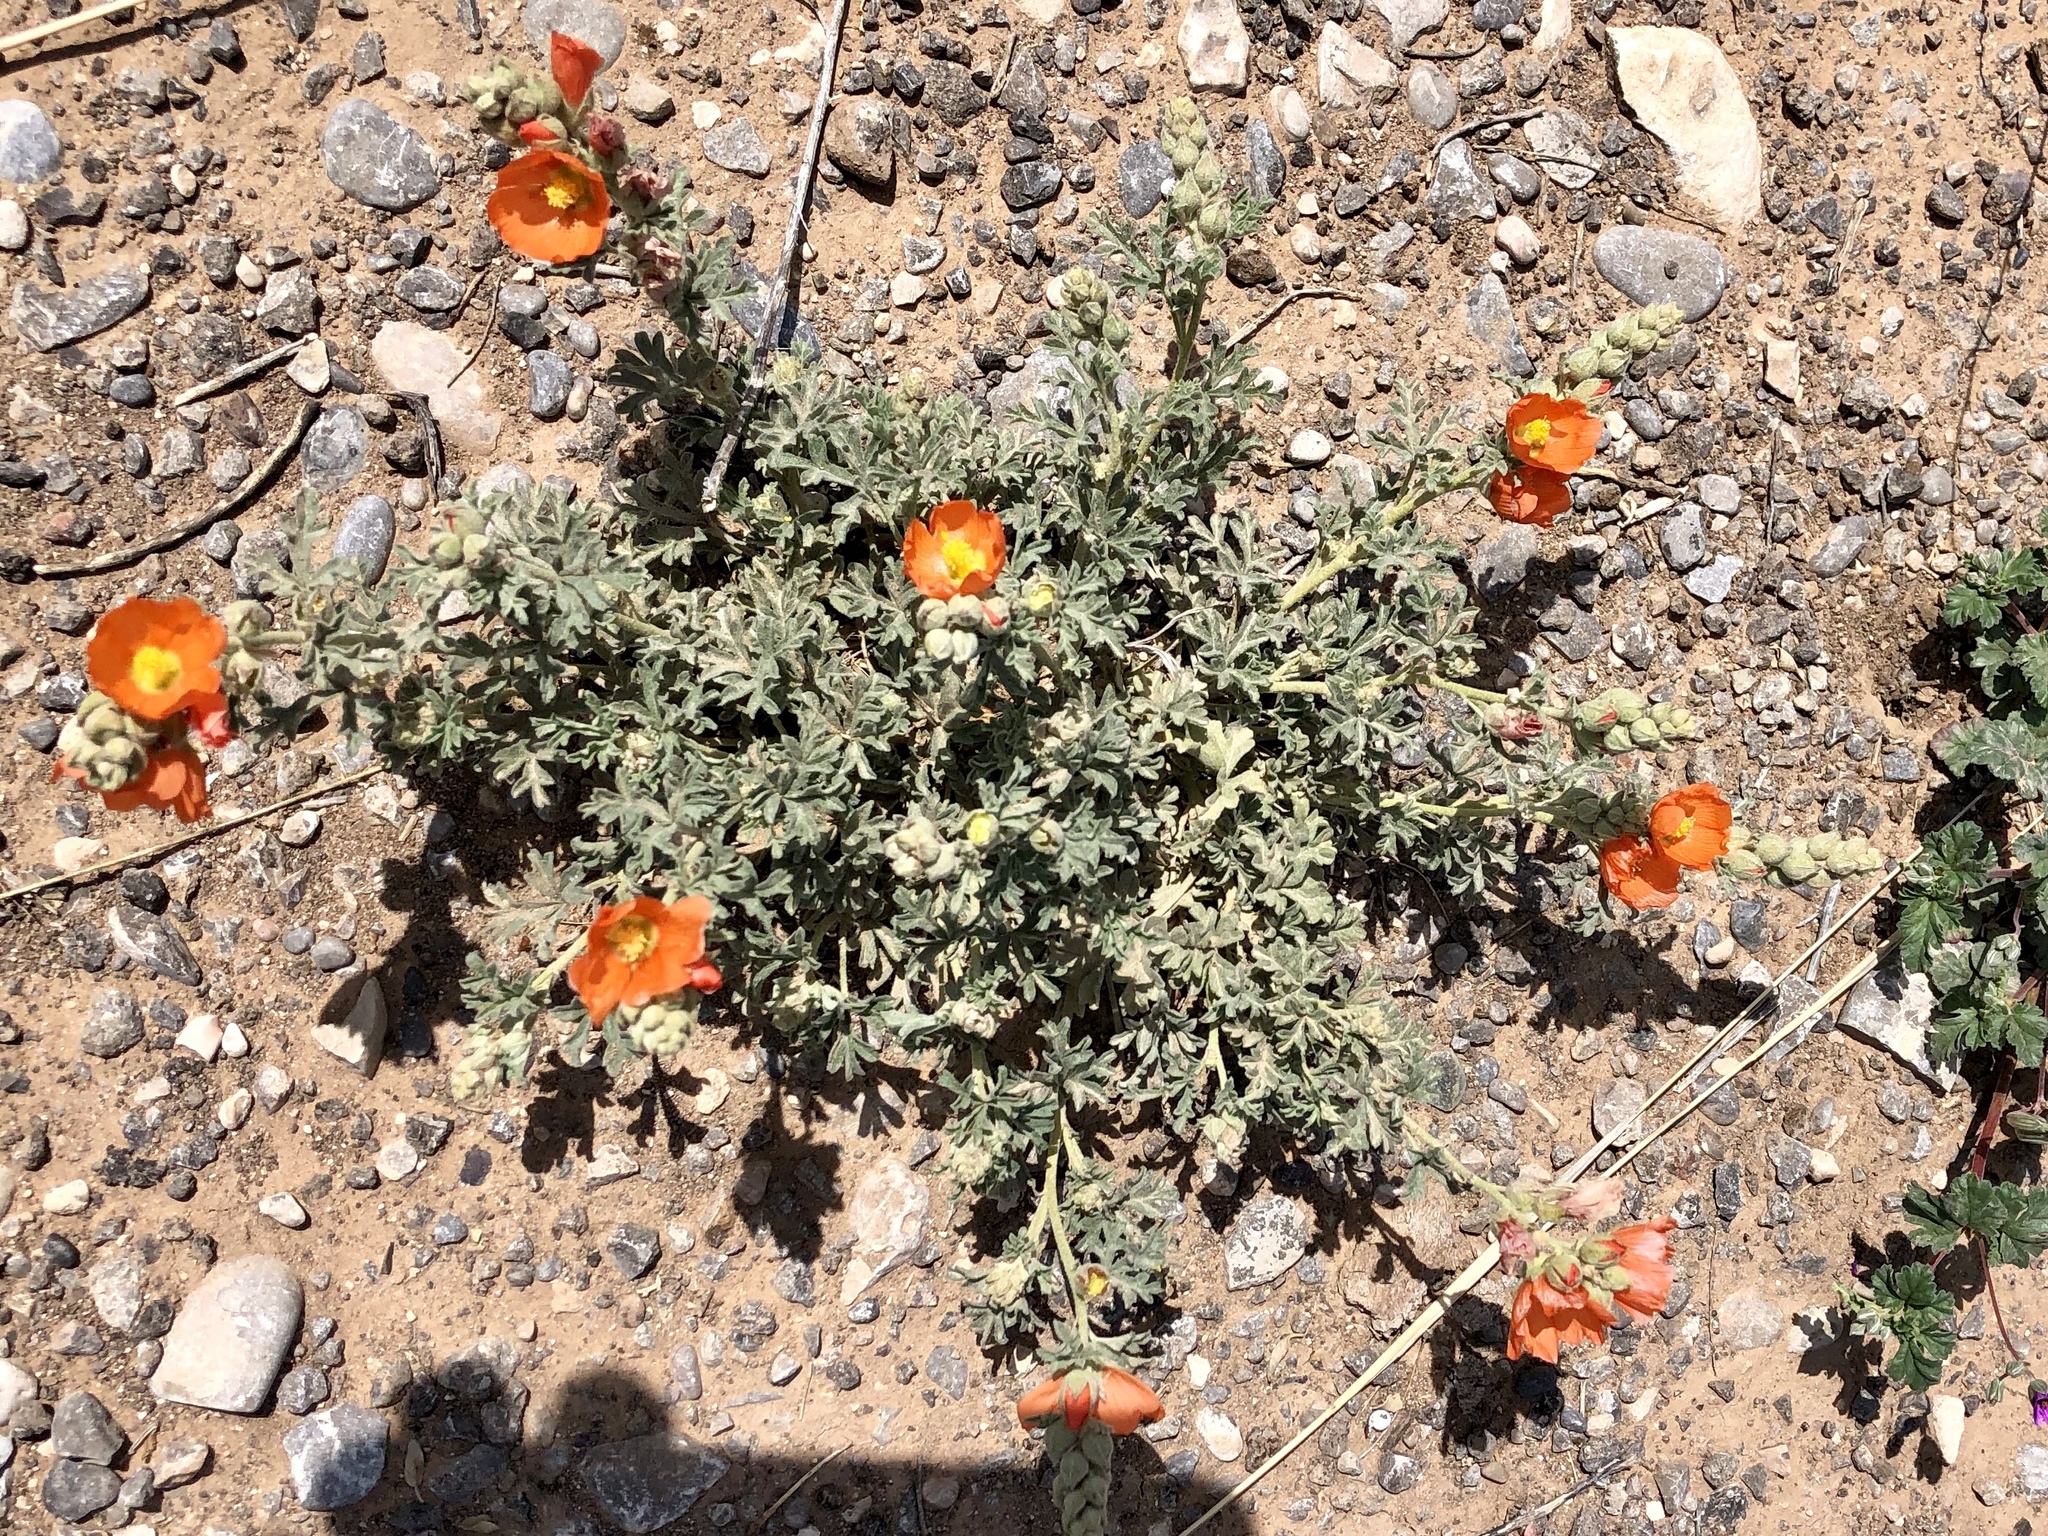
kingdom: Plantae
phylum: Tracheophyta
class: Magnoliopsida
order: Malvales
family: Malvaceae
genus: Sphaeralcea
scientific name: Sphaeralcea coccinea
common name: Moss-rose
